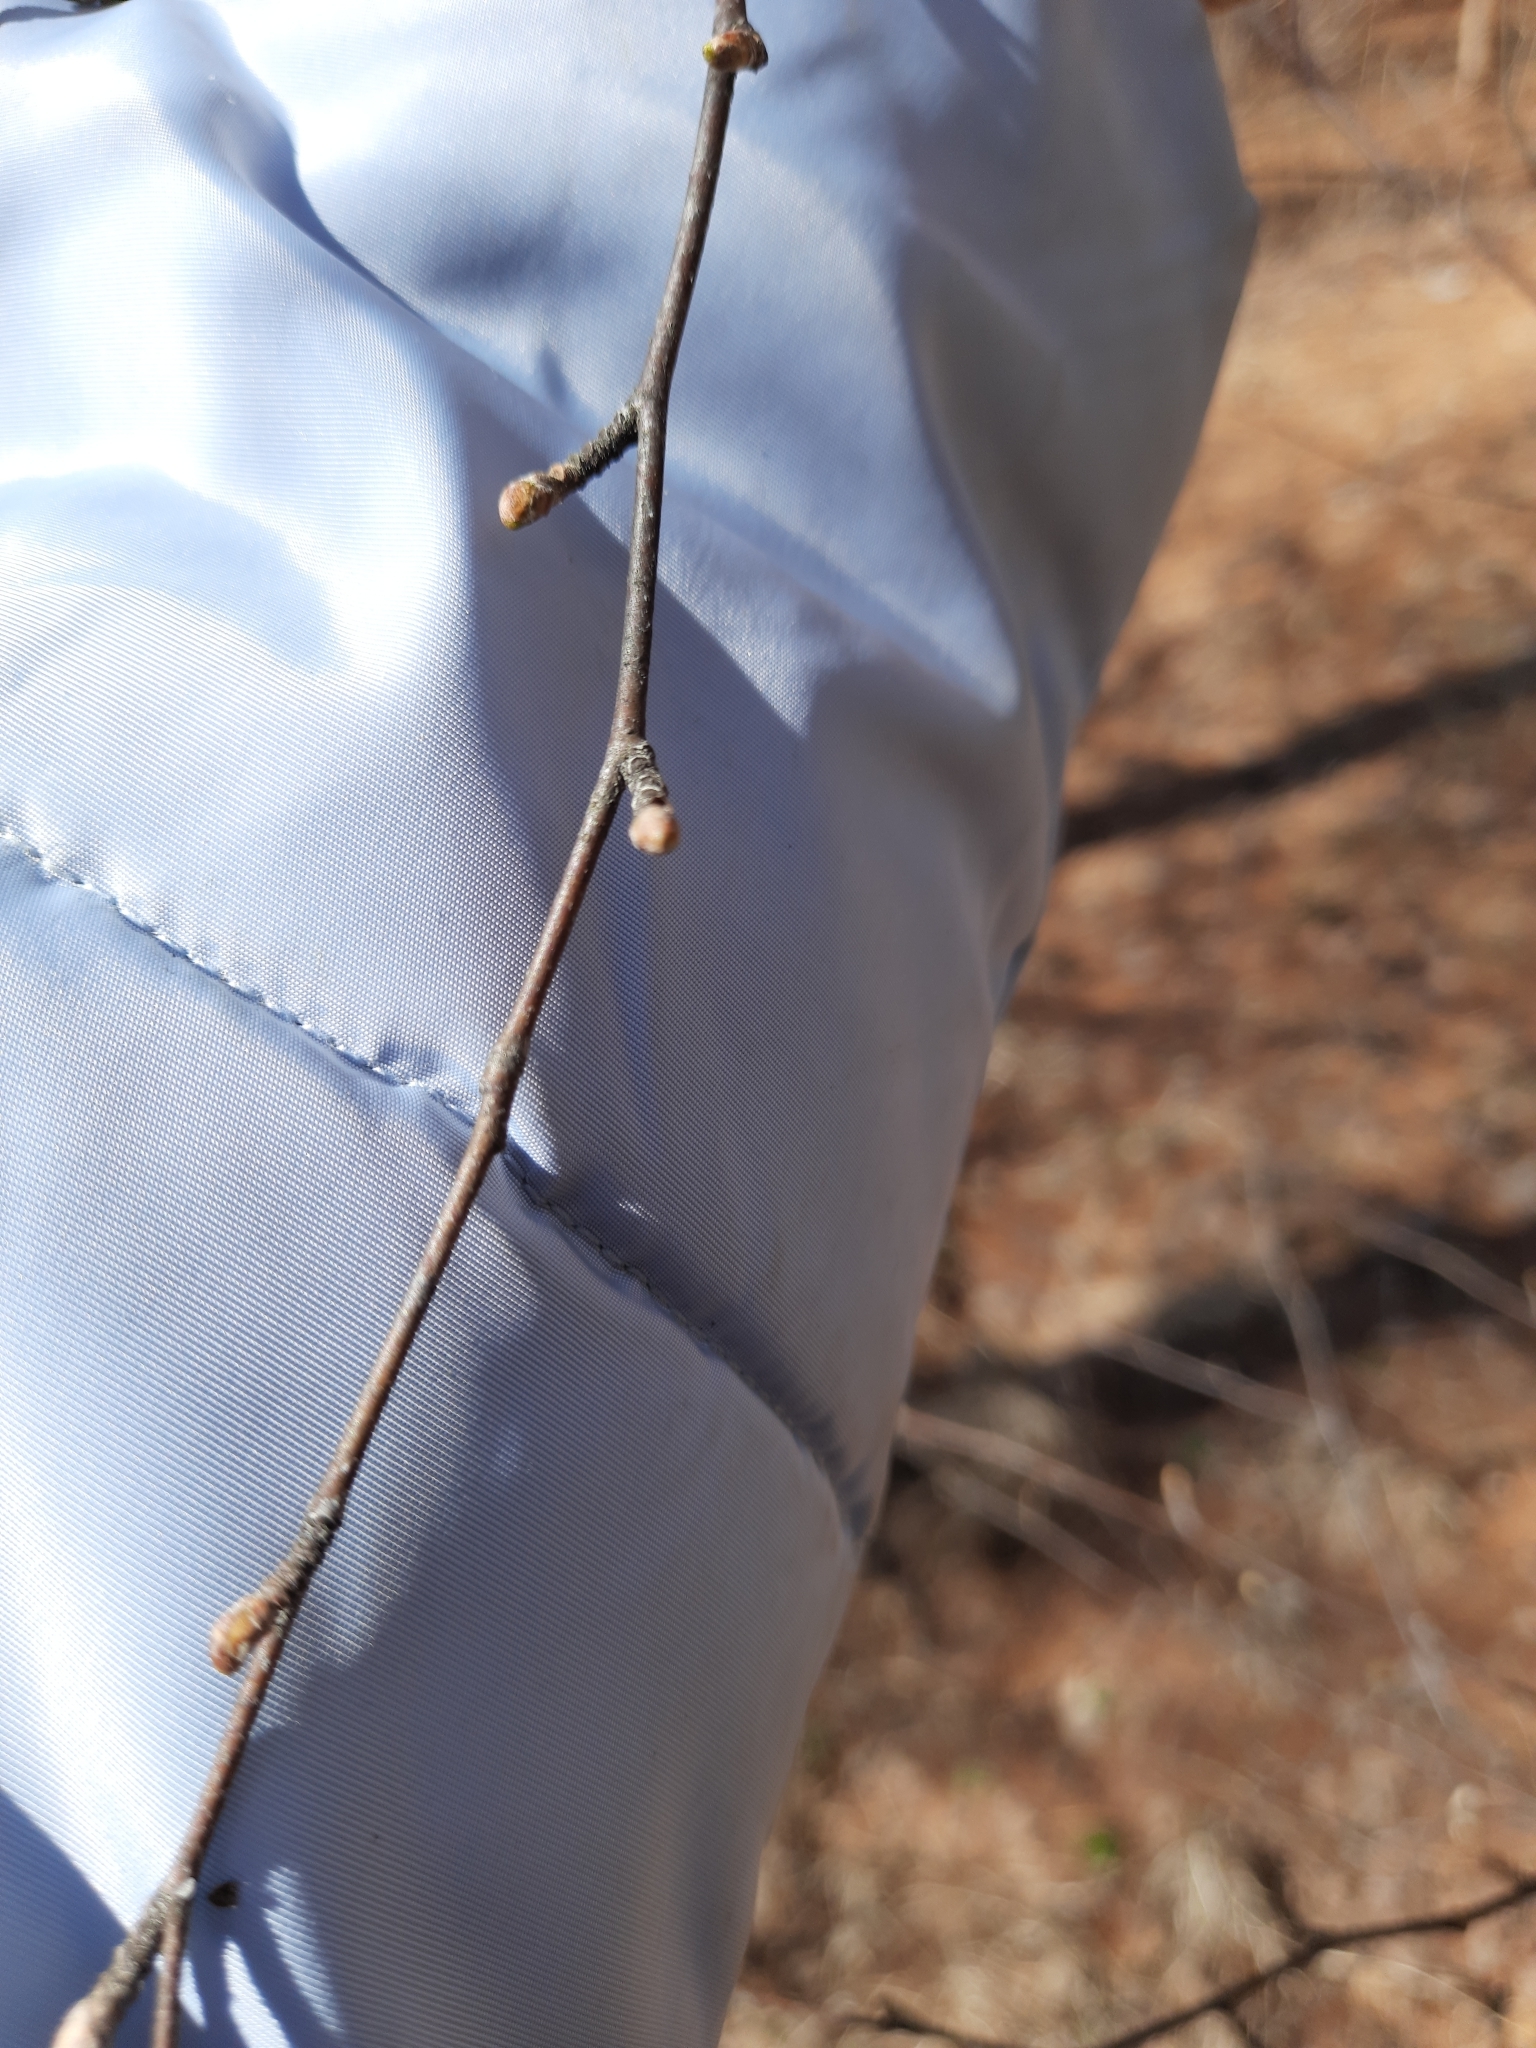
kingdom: Plantae
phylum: Tracheophyta
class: Magnoliopsida
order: Fagales
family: Betulaceae
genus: Betula
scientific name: Betula pubescens
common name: Downy birch
